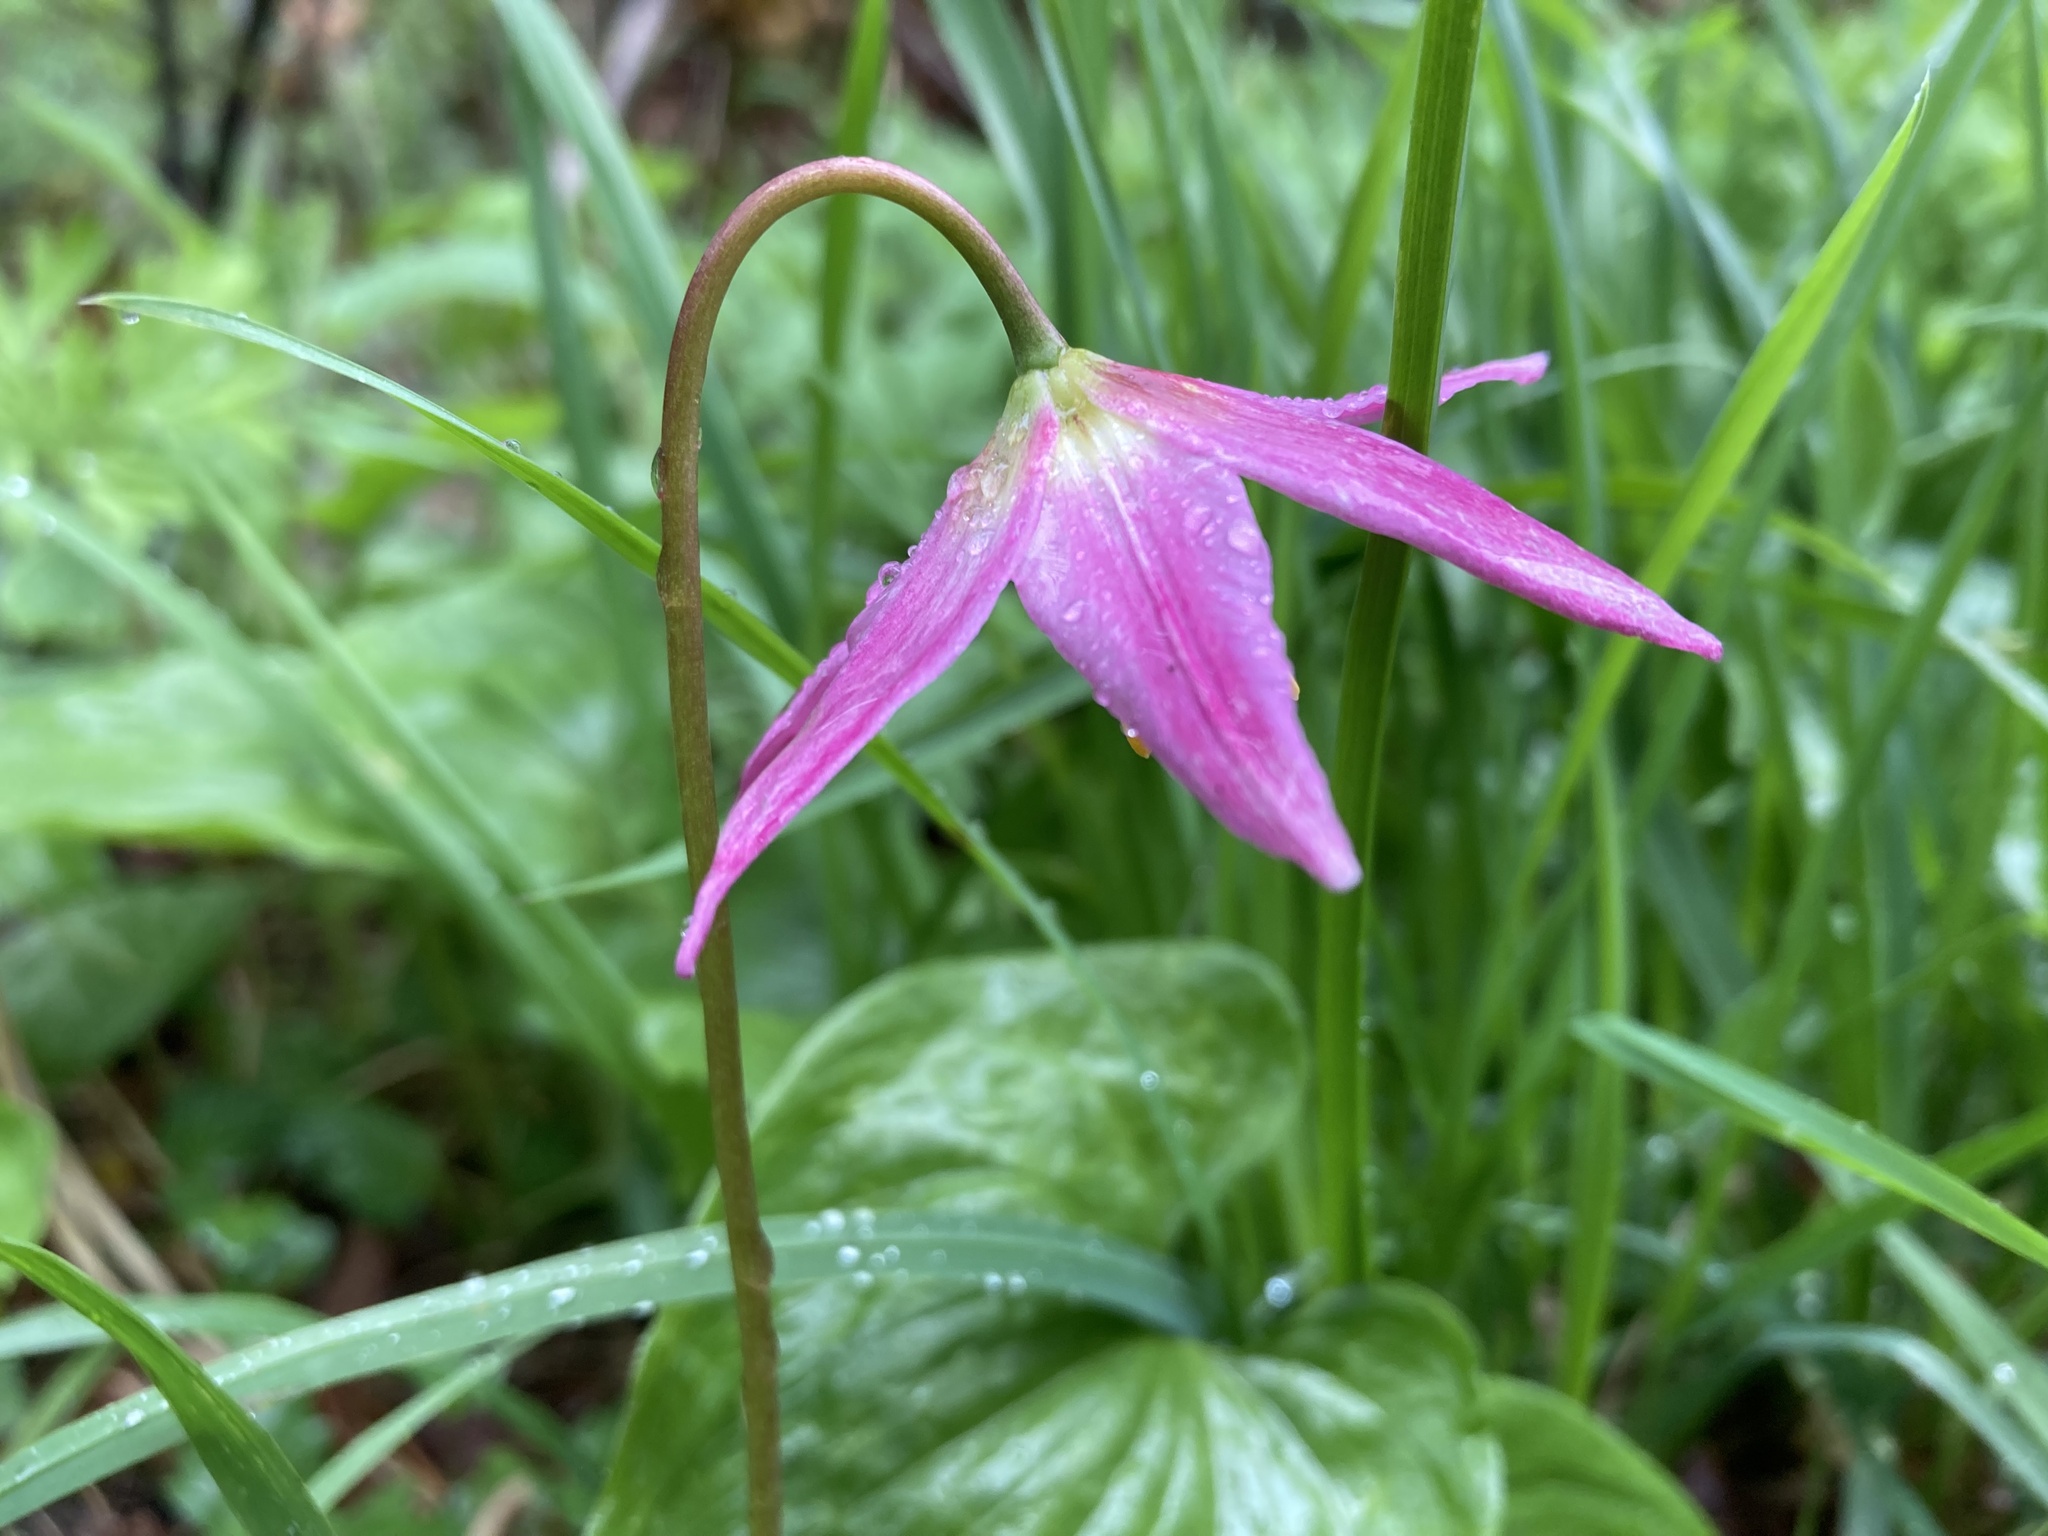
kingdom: Plantae
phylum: Tracheophyta
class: Liliopsida
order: Liliales
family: Liliaceae
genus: Erythronium
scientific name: Erythronium revolutum
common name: Pink fawn-lily
